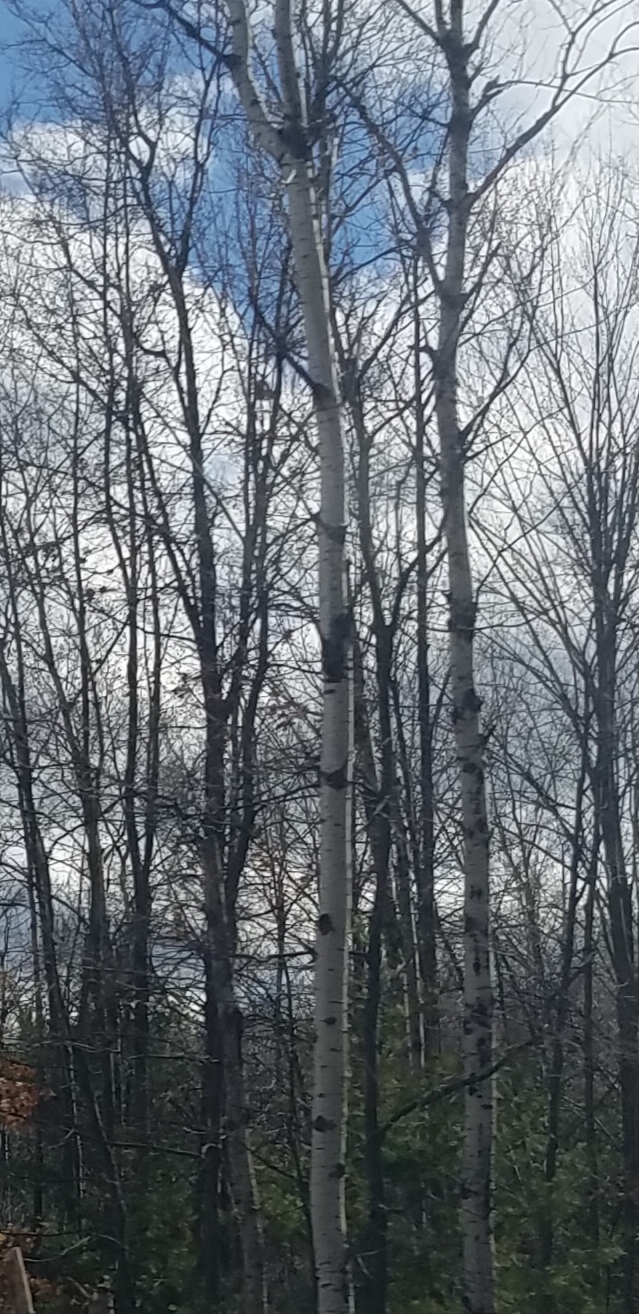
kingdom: Plantae
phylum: Tracheophyta
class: Magnoliopsida
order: Malpighiales
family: Salicaceae
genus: Populus
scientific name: Populus tremuloides
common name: Quaking aspen
